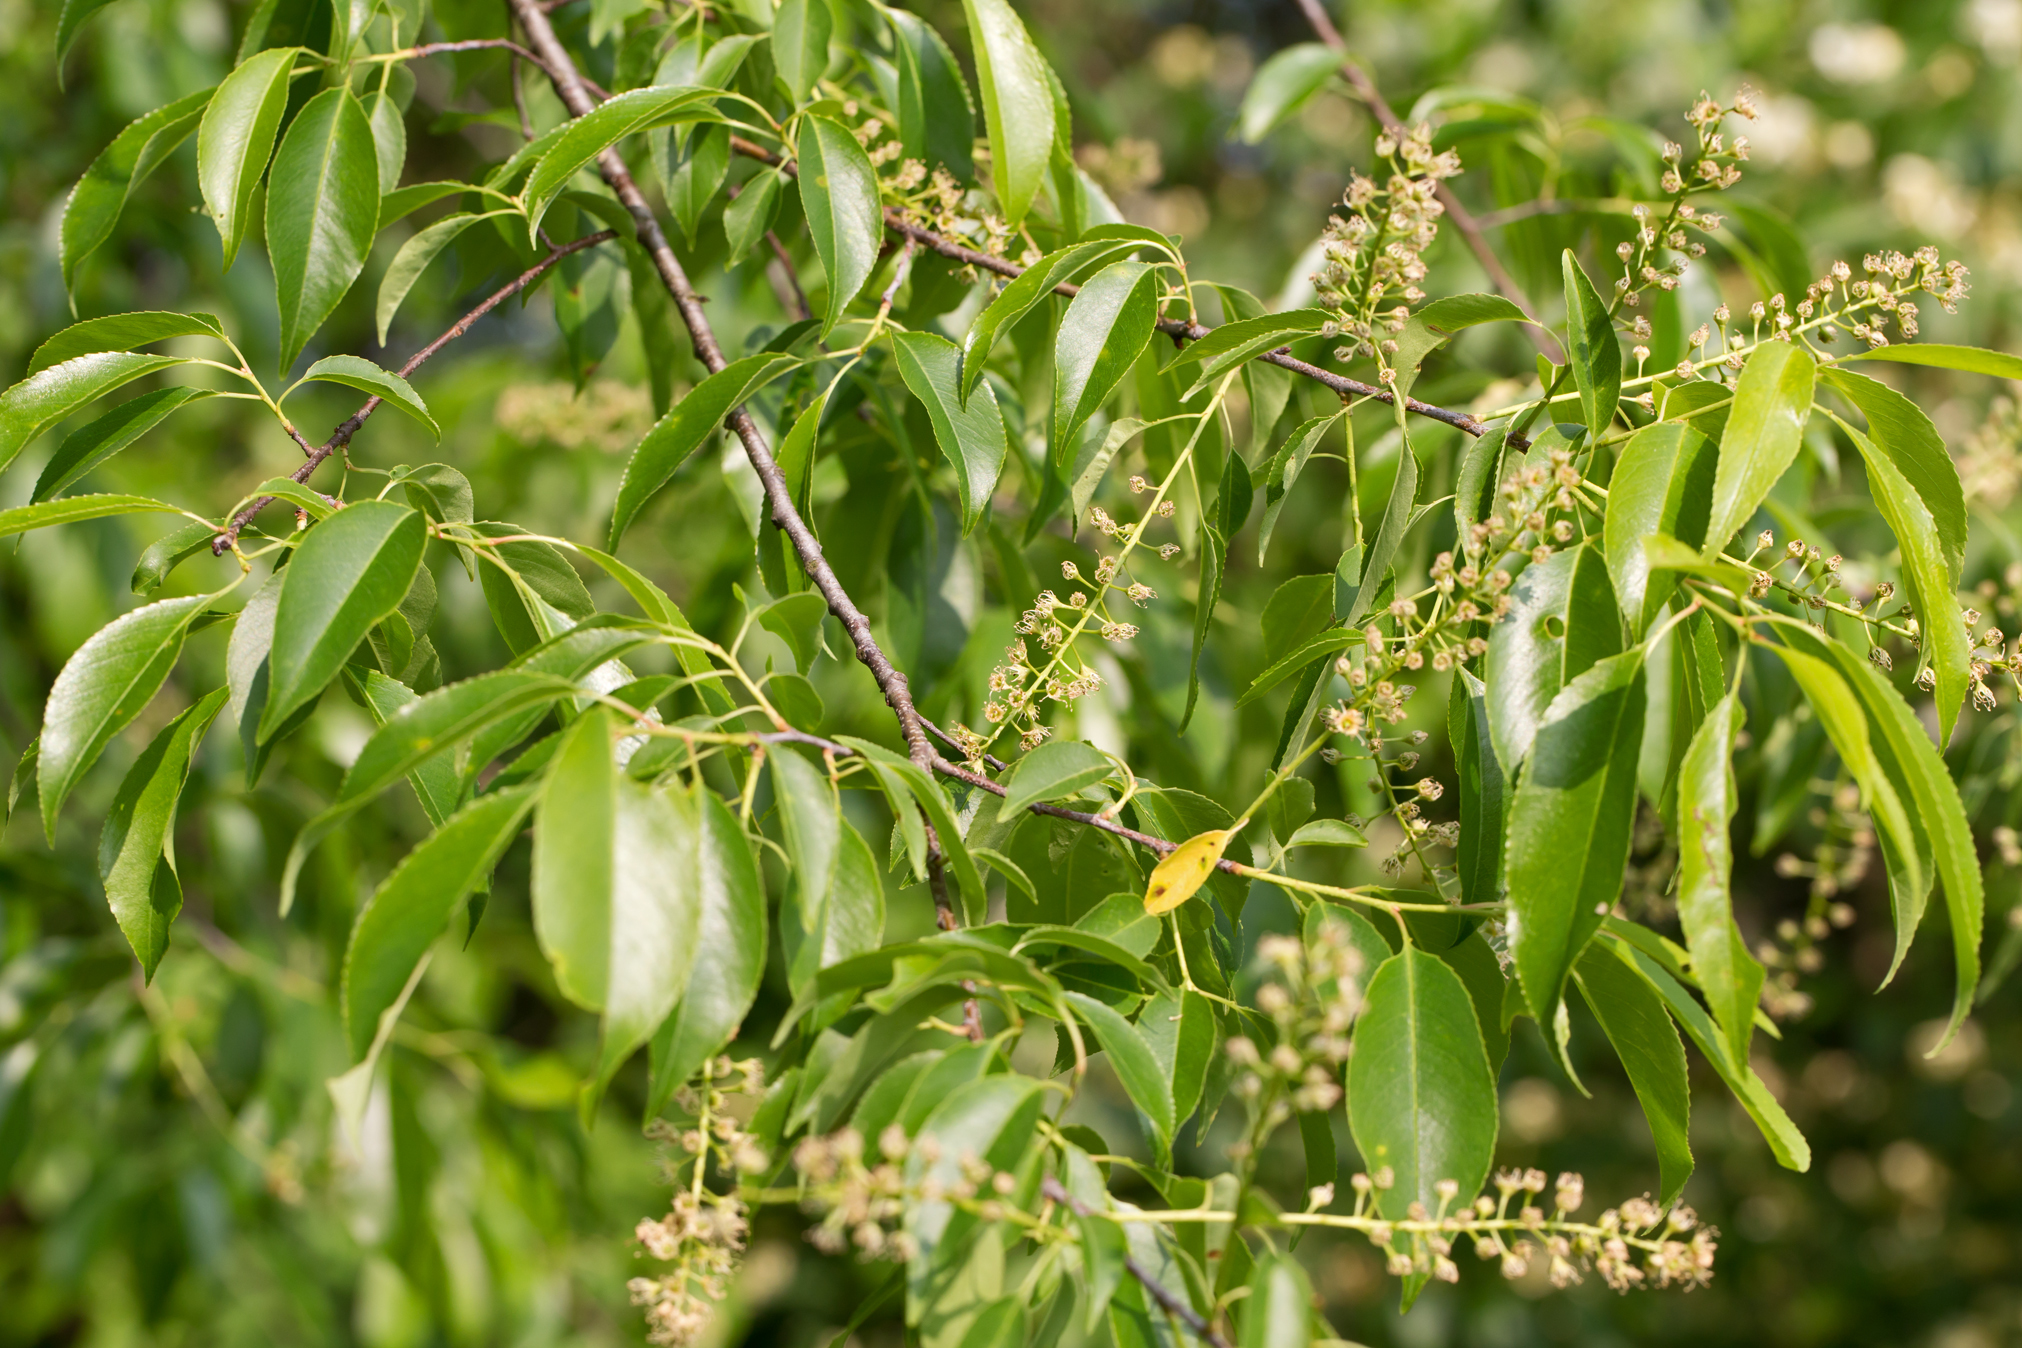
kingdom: Plantae
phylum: Tracheophyta
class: Magnoliopsida
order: Rosales
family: Rosaceae
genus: Prunus
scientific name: Prunus serotina
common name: Black cherry
